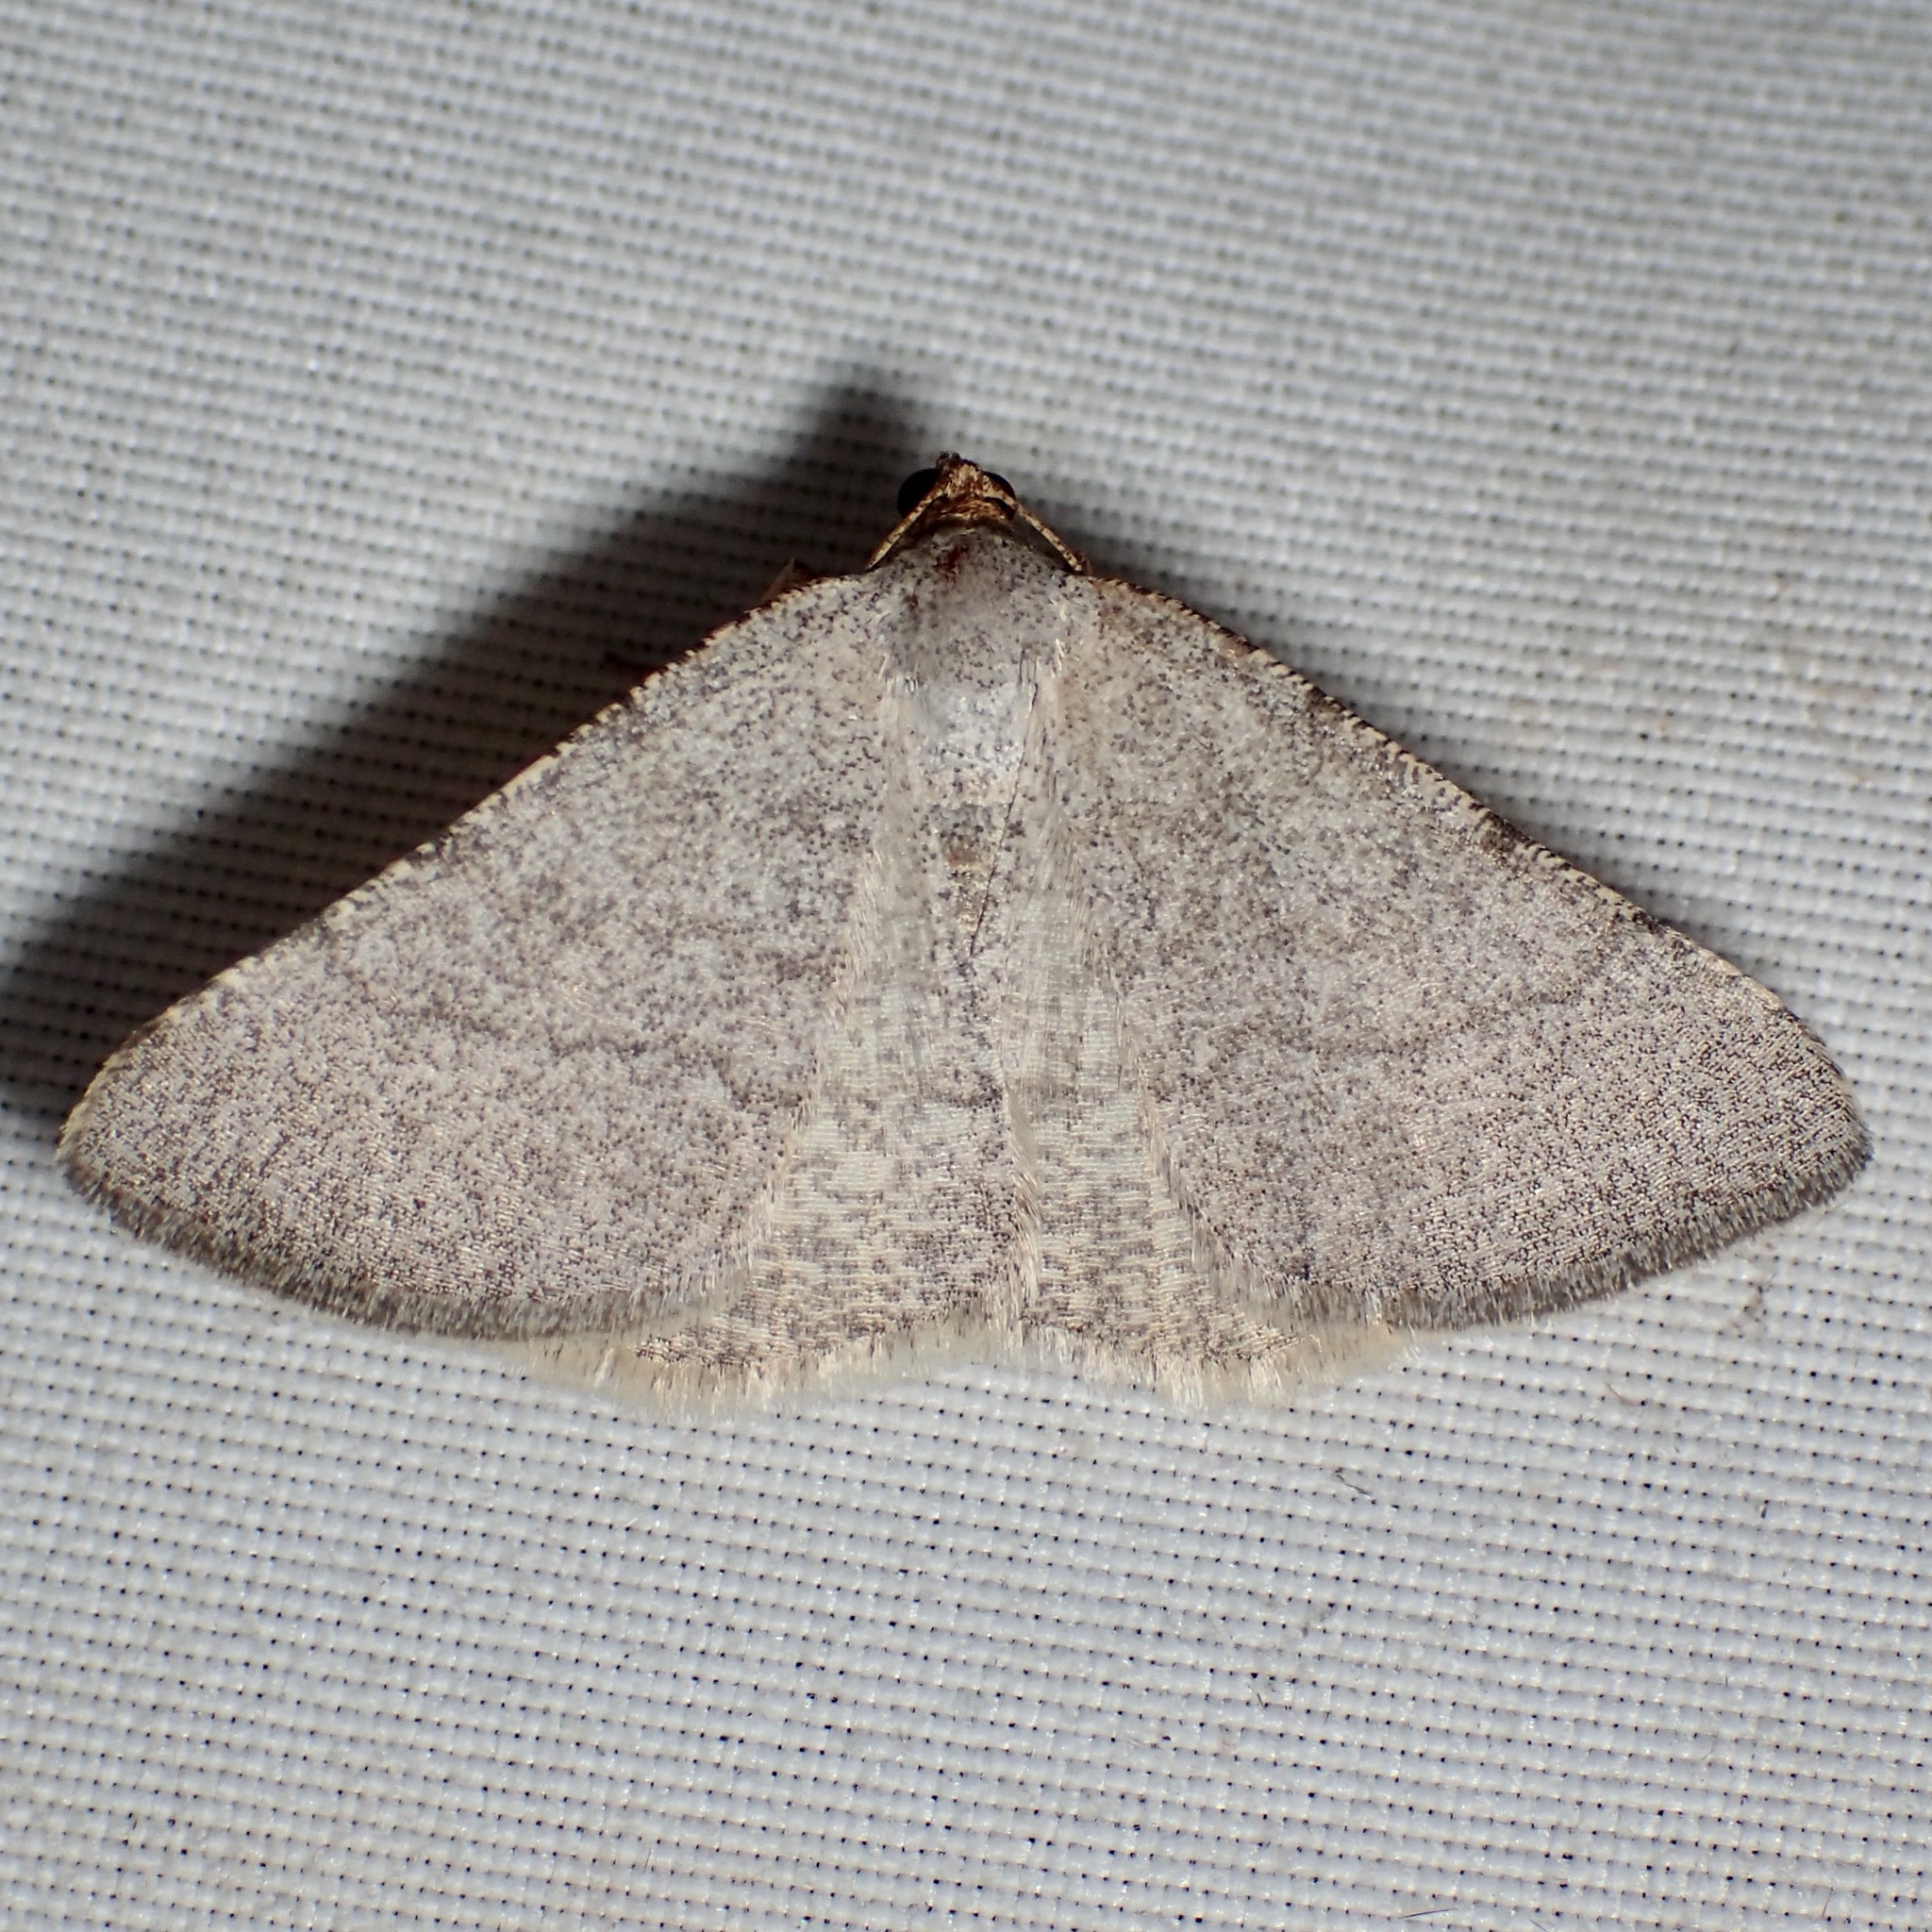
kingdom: Animalia
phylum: Arthropoda
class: Insecta
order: Lepidoptera
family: Geometridae
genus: Macaria
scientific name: Macaria tenebrosata
